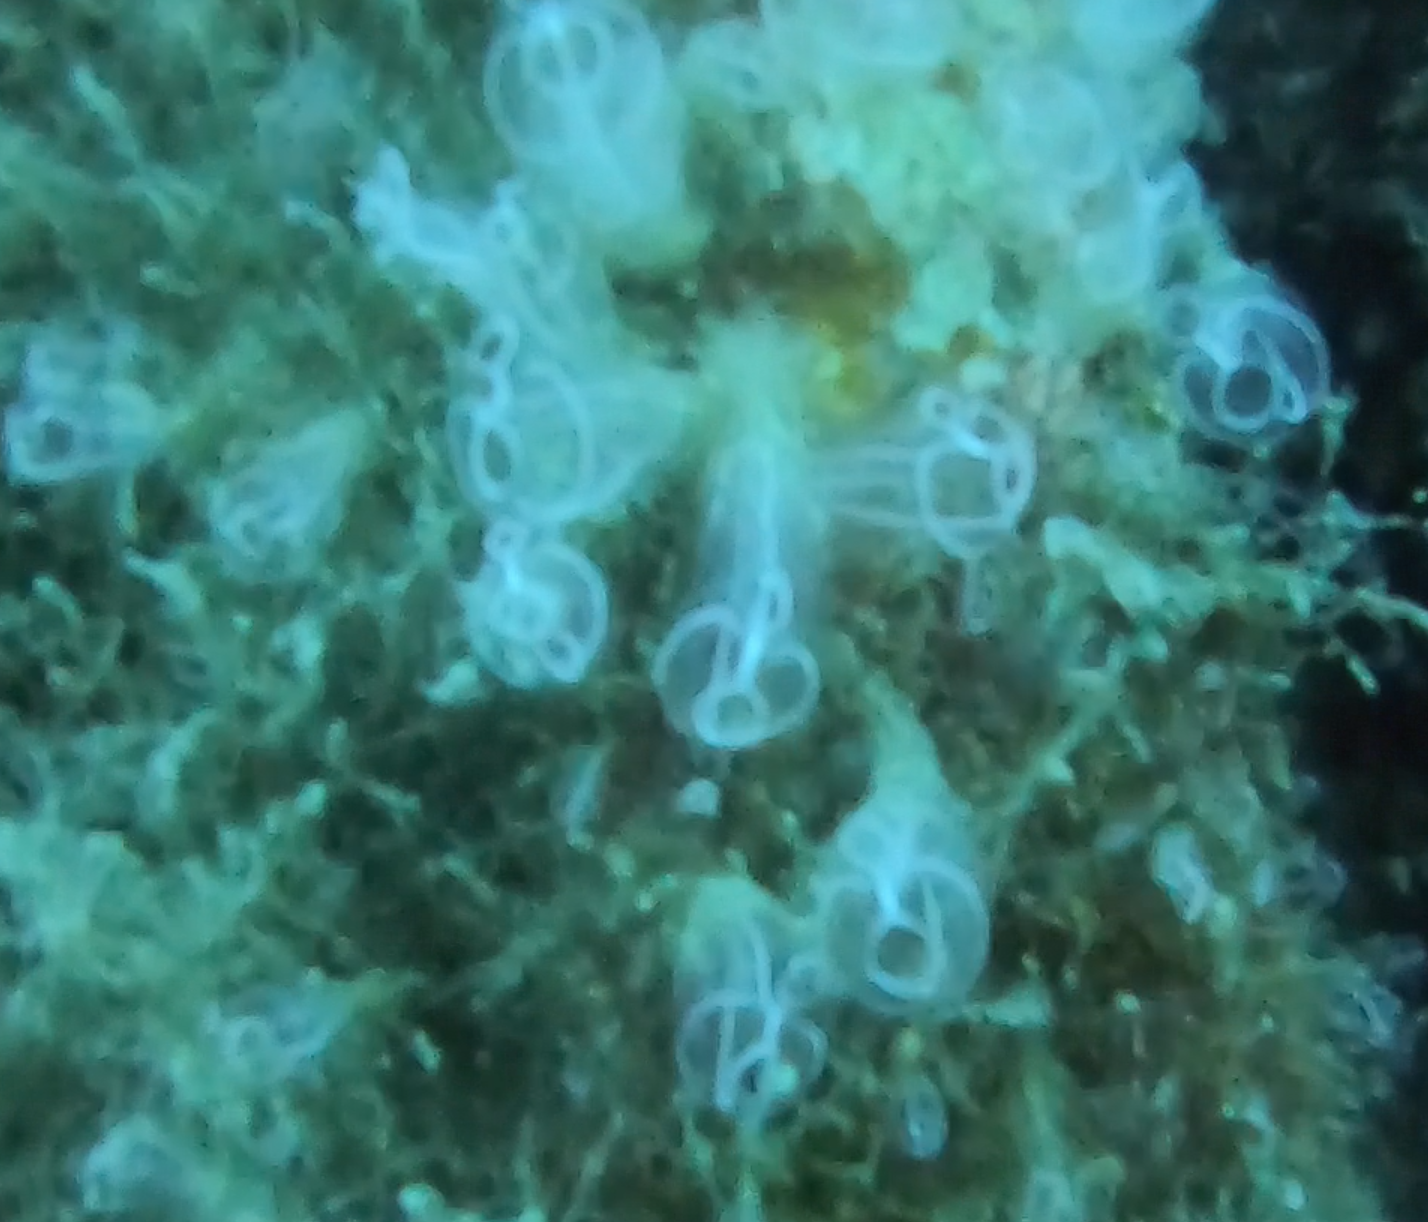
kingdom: Animalia
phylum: Chordata
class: Ascidiacea
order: Aplousobranchia
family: Clavelinidae
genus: Clavelina
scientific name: Clavelina lepadiformis
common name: Light bulb tunicate
